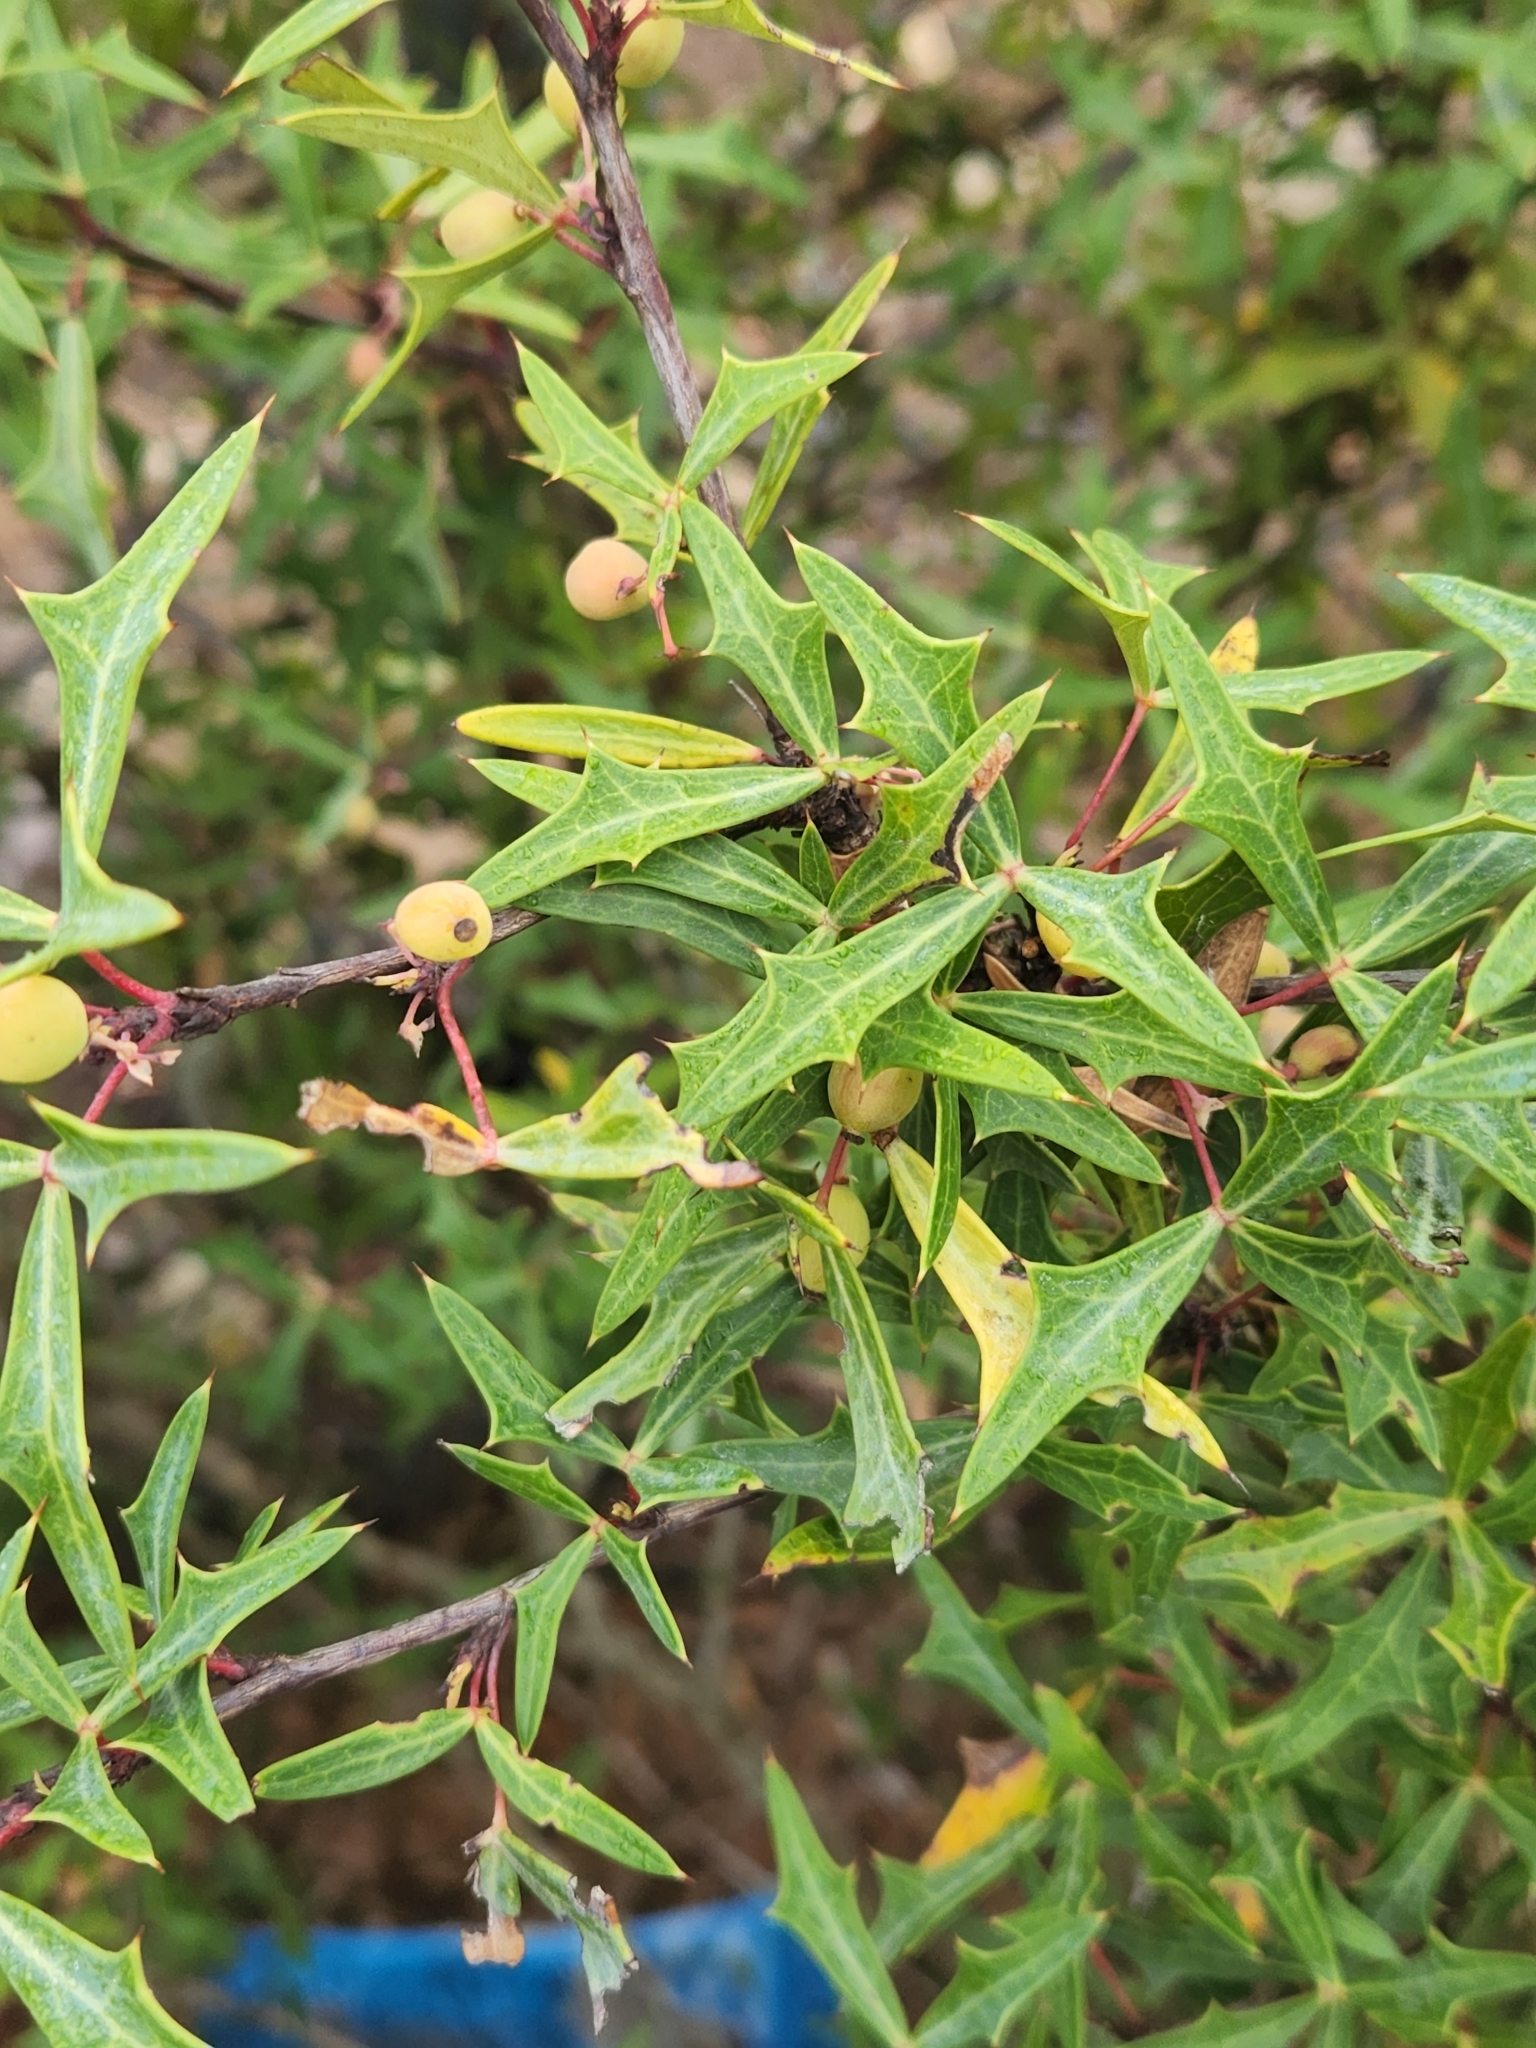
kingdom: Plantae
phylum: Tracheophyta
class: Magnoliopsida
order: Ranunculales
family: Berberidaceae
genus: Alloberberis
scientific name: Alloberberis trifoliolata
